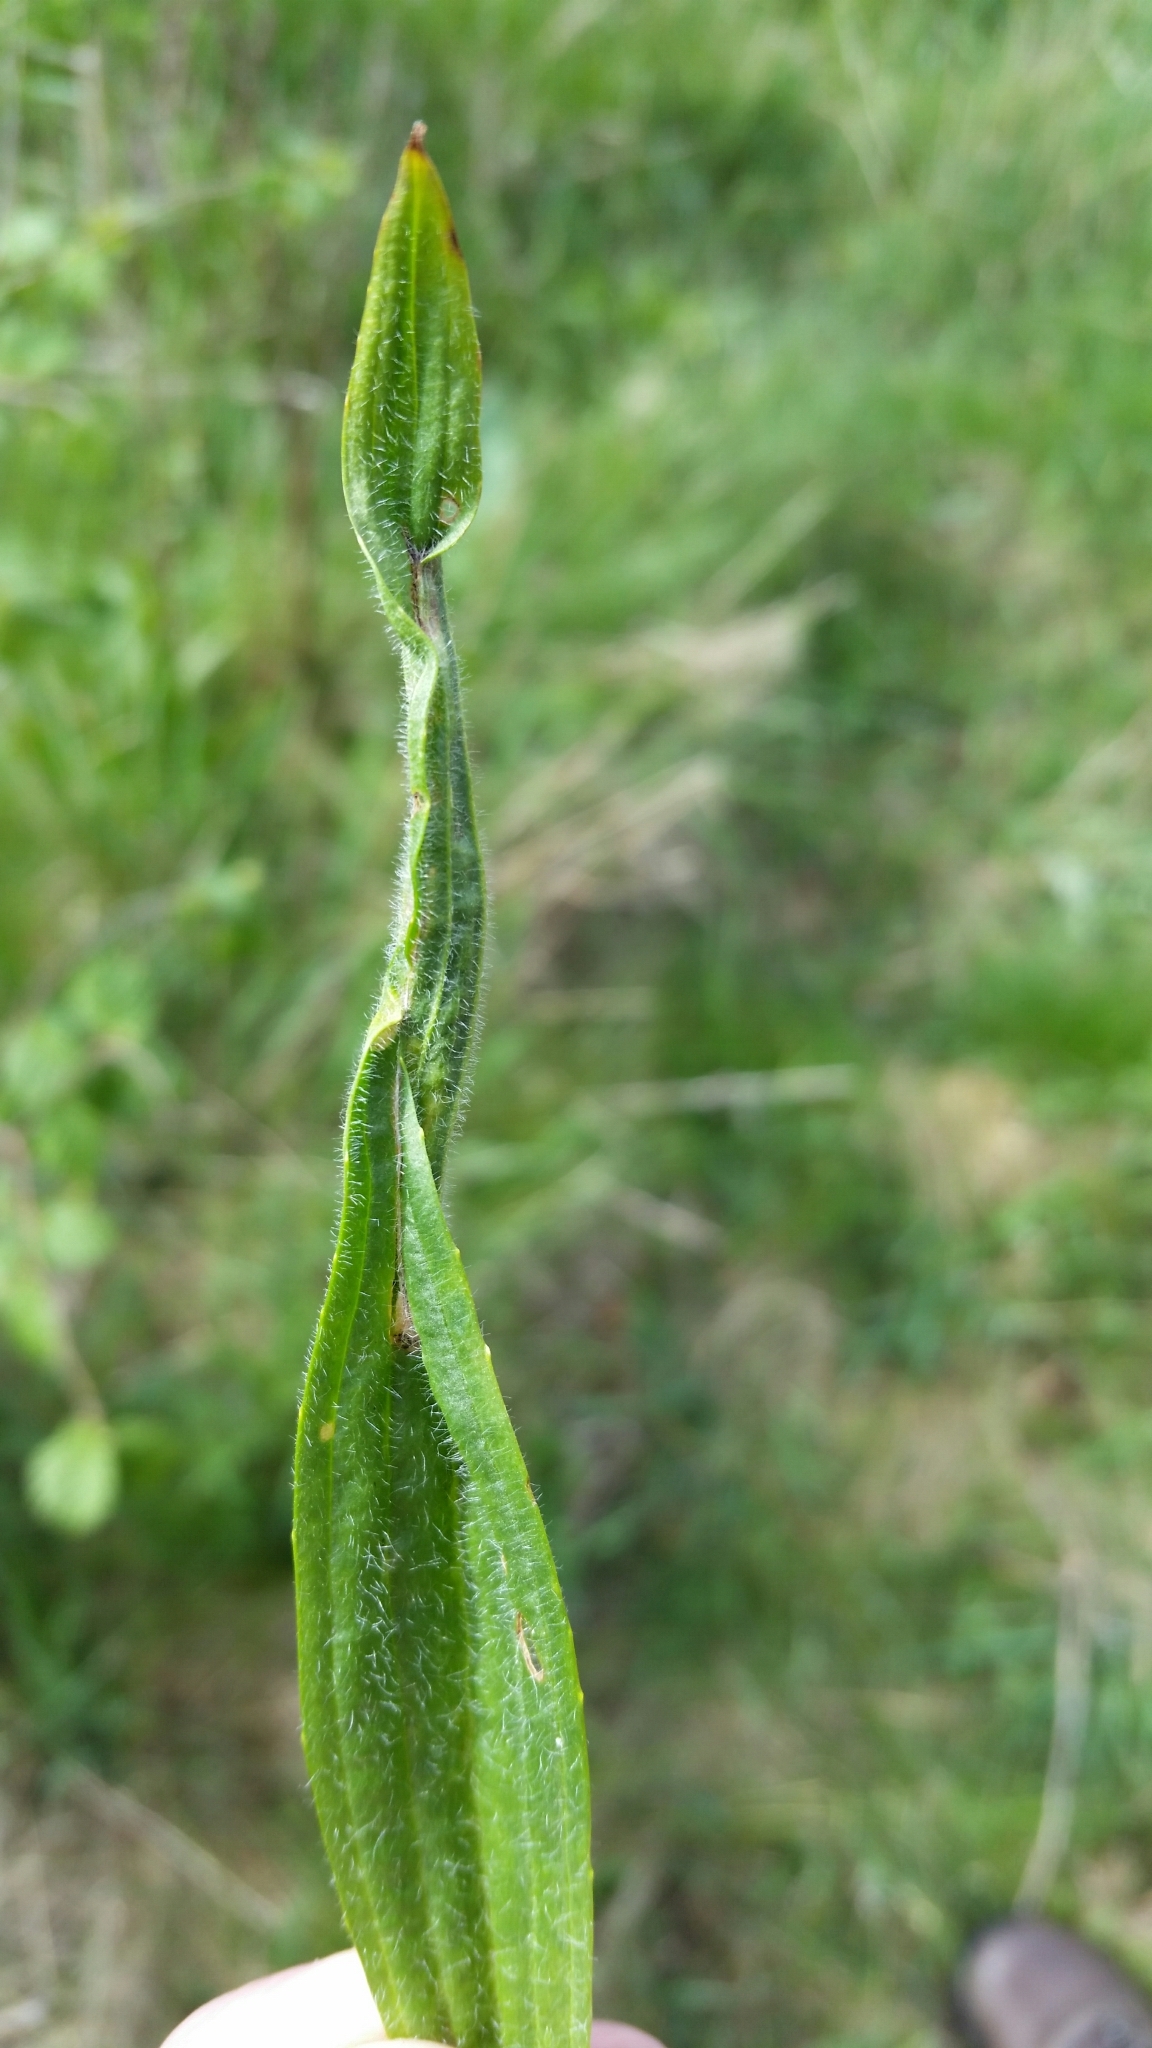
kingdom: Animalia
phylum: Arthropoda
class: Insecta
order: Lepidoptera
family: Gracillariidae
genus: Aspilapteryx
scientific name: Aspilapteryx tringipennella
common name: Ribwort slender
